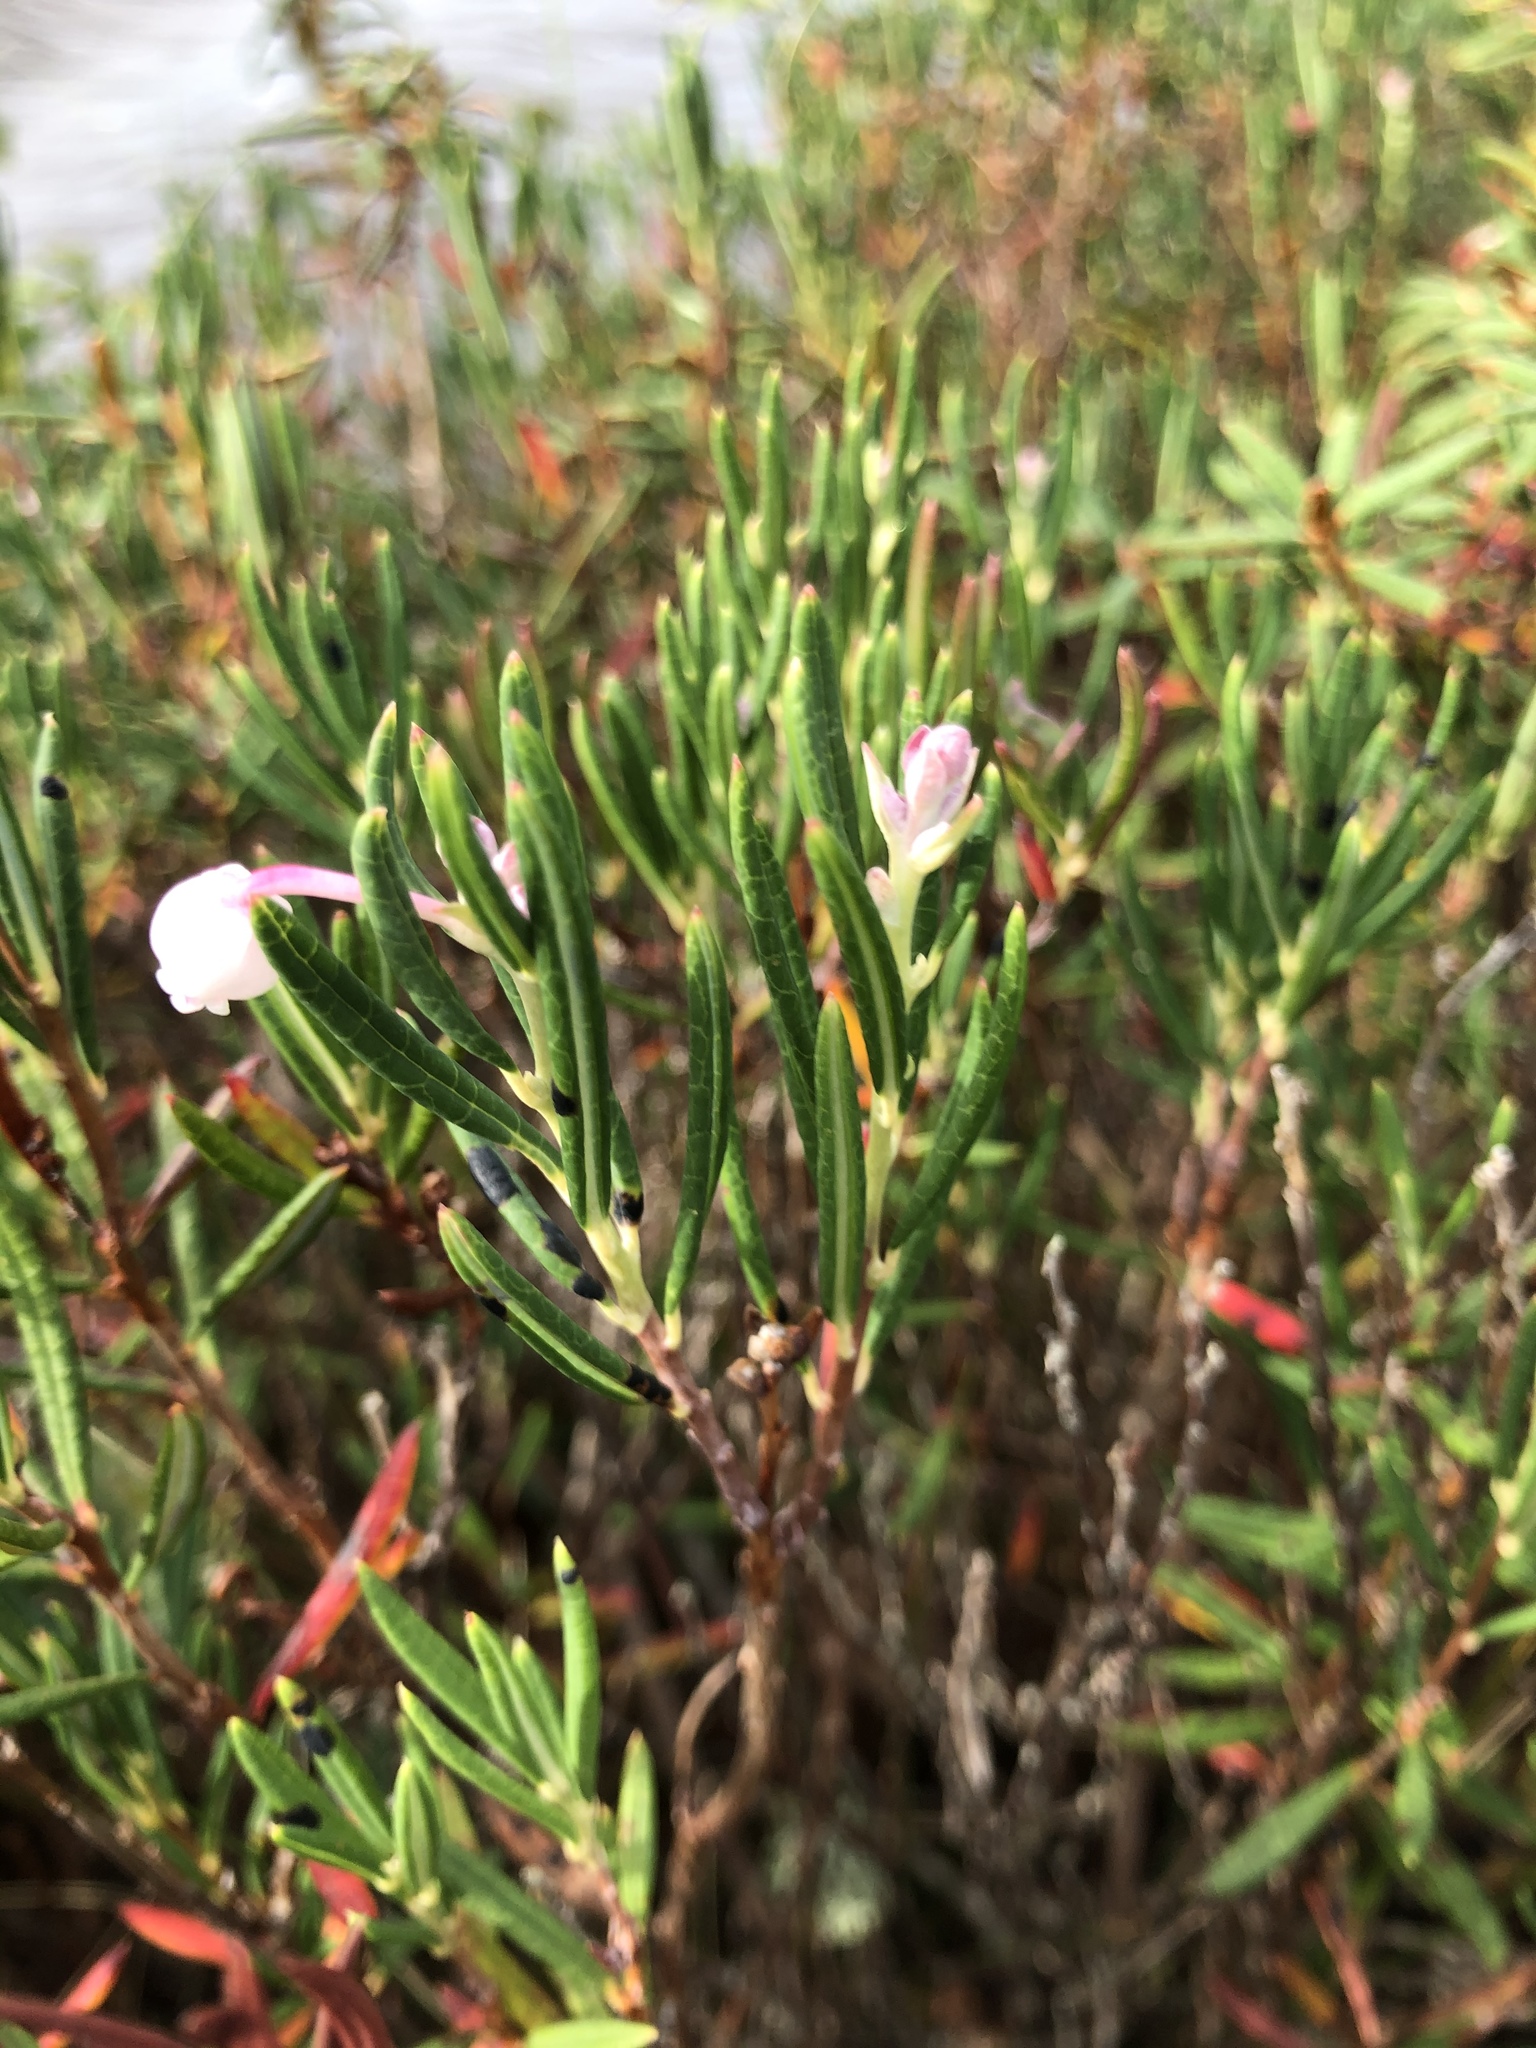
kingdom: Plantae
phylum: Tracheophyta
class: Magnoliopsida
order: Ericales
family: Ericaceae
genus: Andromeda
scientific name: Andromeda polifolia
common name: Bog-rosemary
